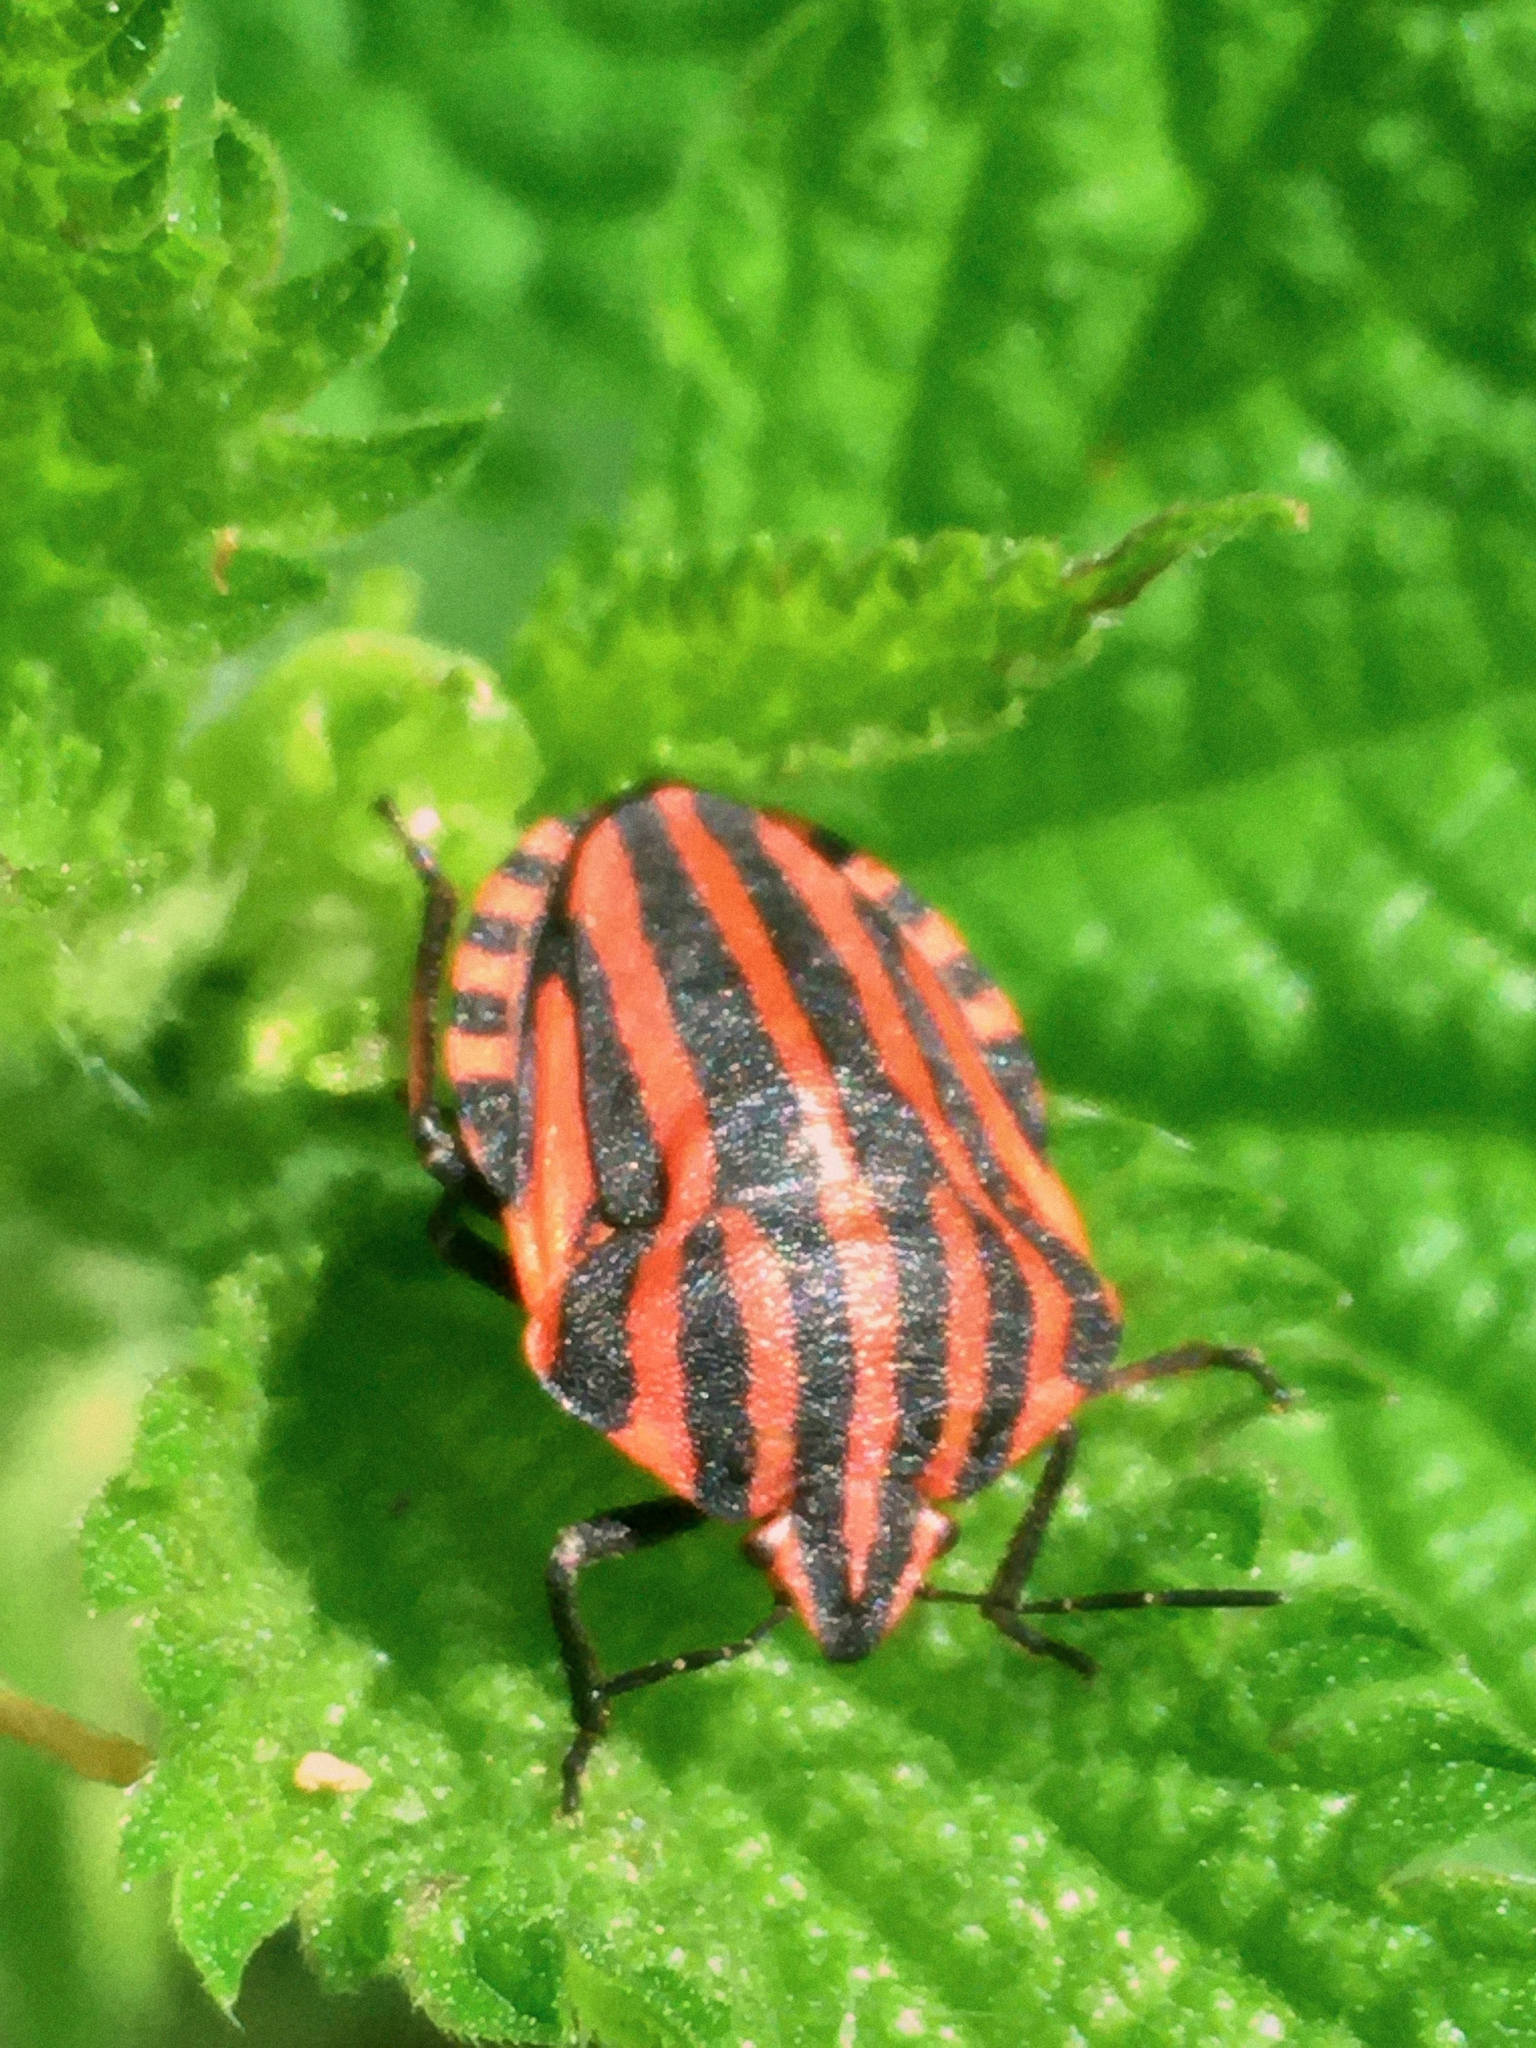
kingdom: Animalia
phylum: Arthropoda
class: Insecta
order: Hemiptera
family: Pentatomidae
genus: Graphosoma
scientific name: Graphosoma italicum
